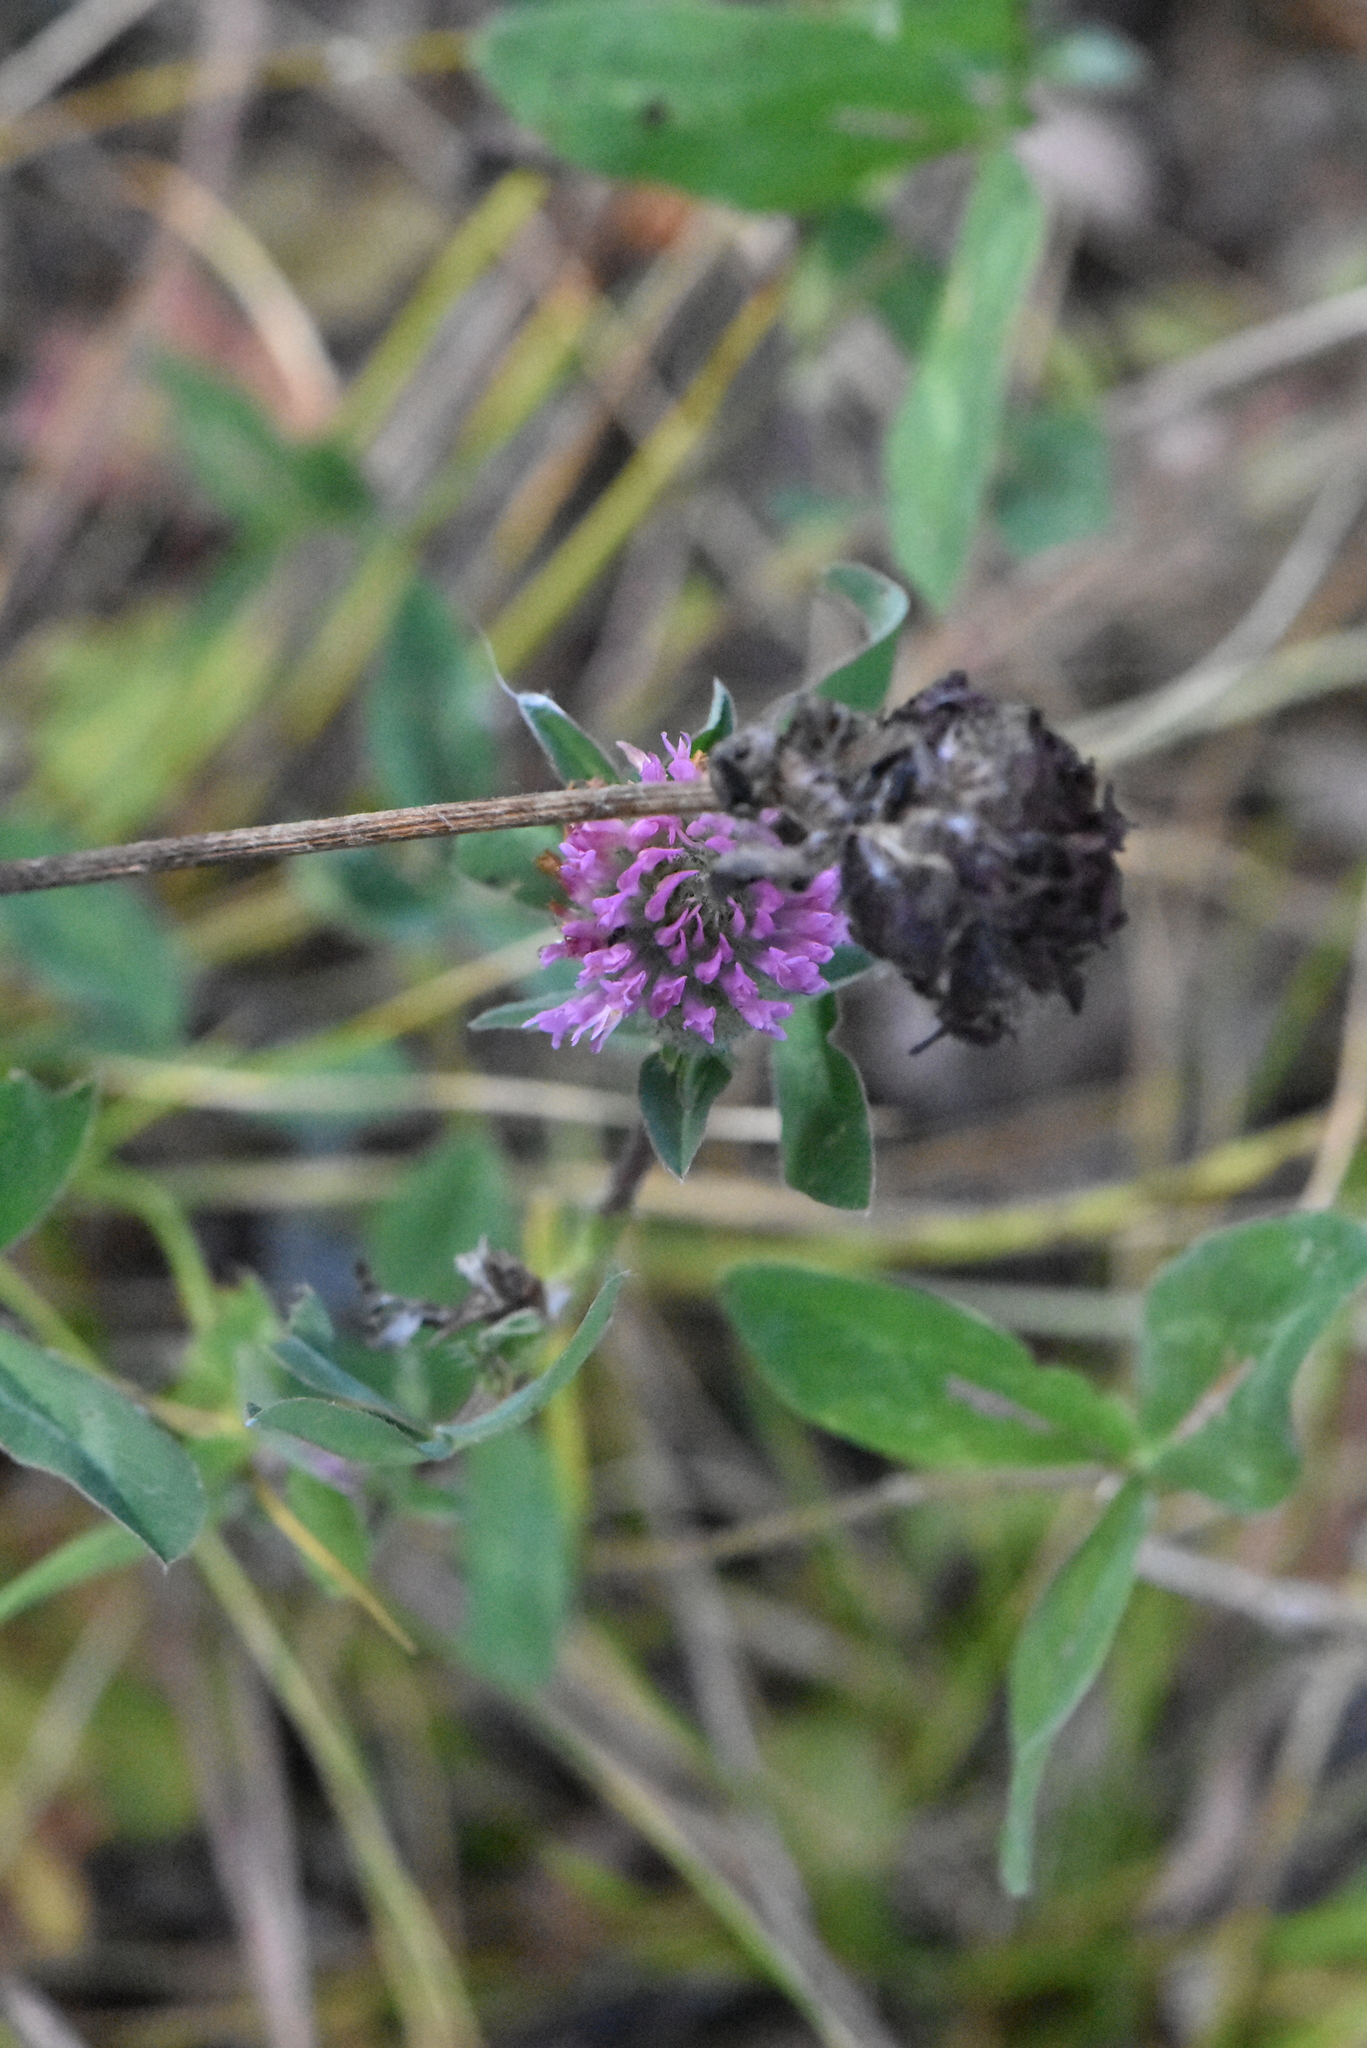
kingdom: Plantae
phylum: Tracheophyta
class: Magnoliopsida
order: Fabales
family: Fabaceae
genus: Trifolium
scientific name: Trifolium pratense
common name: Red clover
